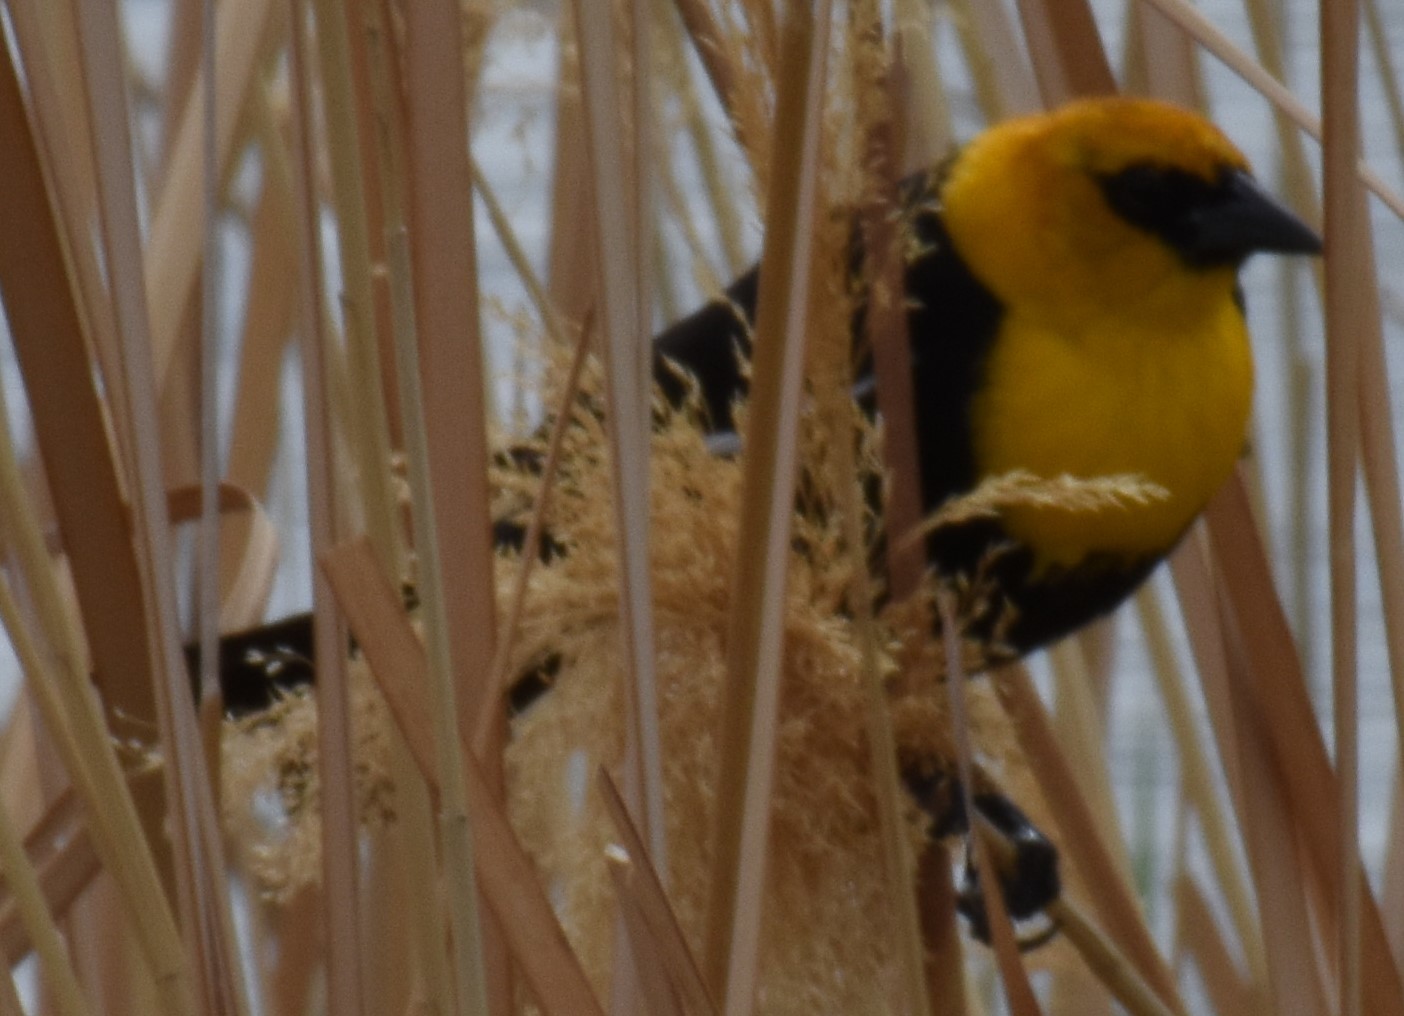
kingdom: Animalia
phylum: Chordata
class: Aves
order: Passeriformes
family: Icteridae
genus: Xanthocephalus
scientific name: Xanthocephalus xanthocephalus
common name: Yellow-headed blackbird
